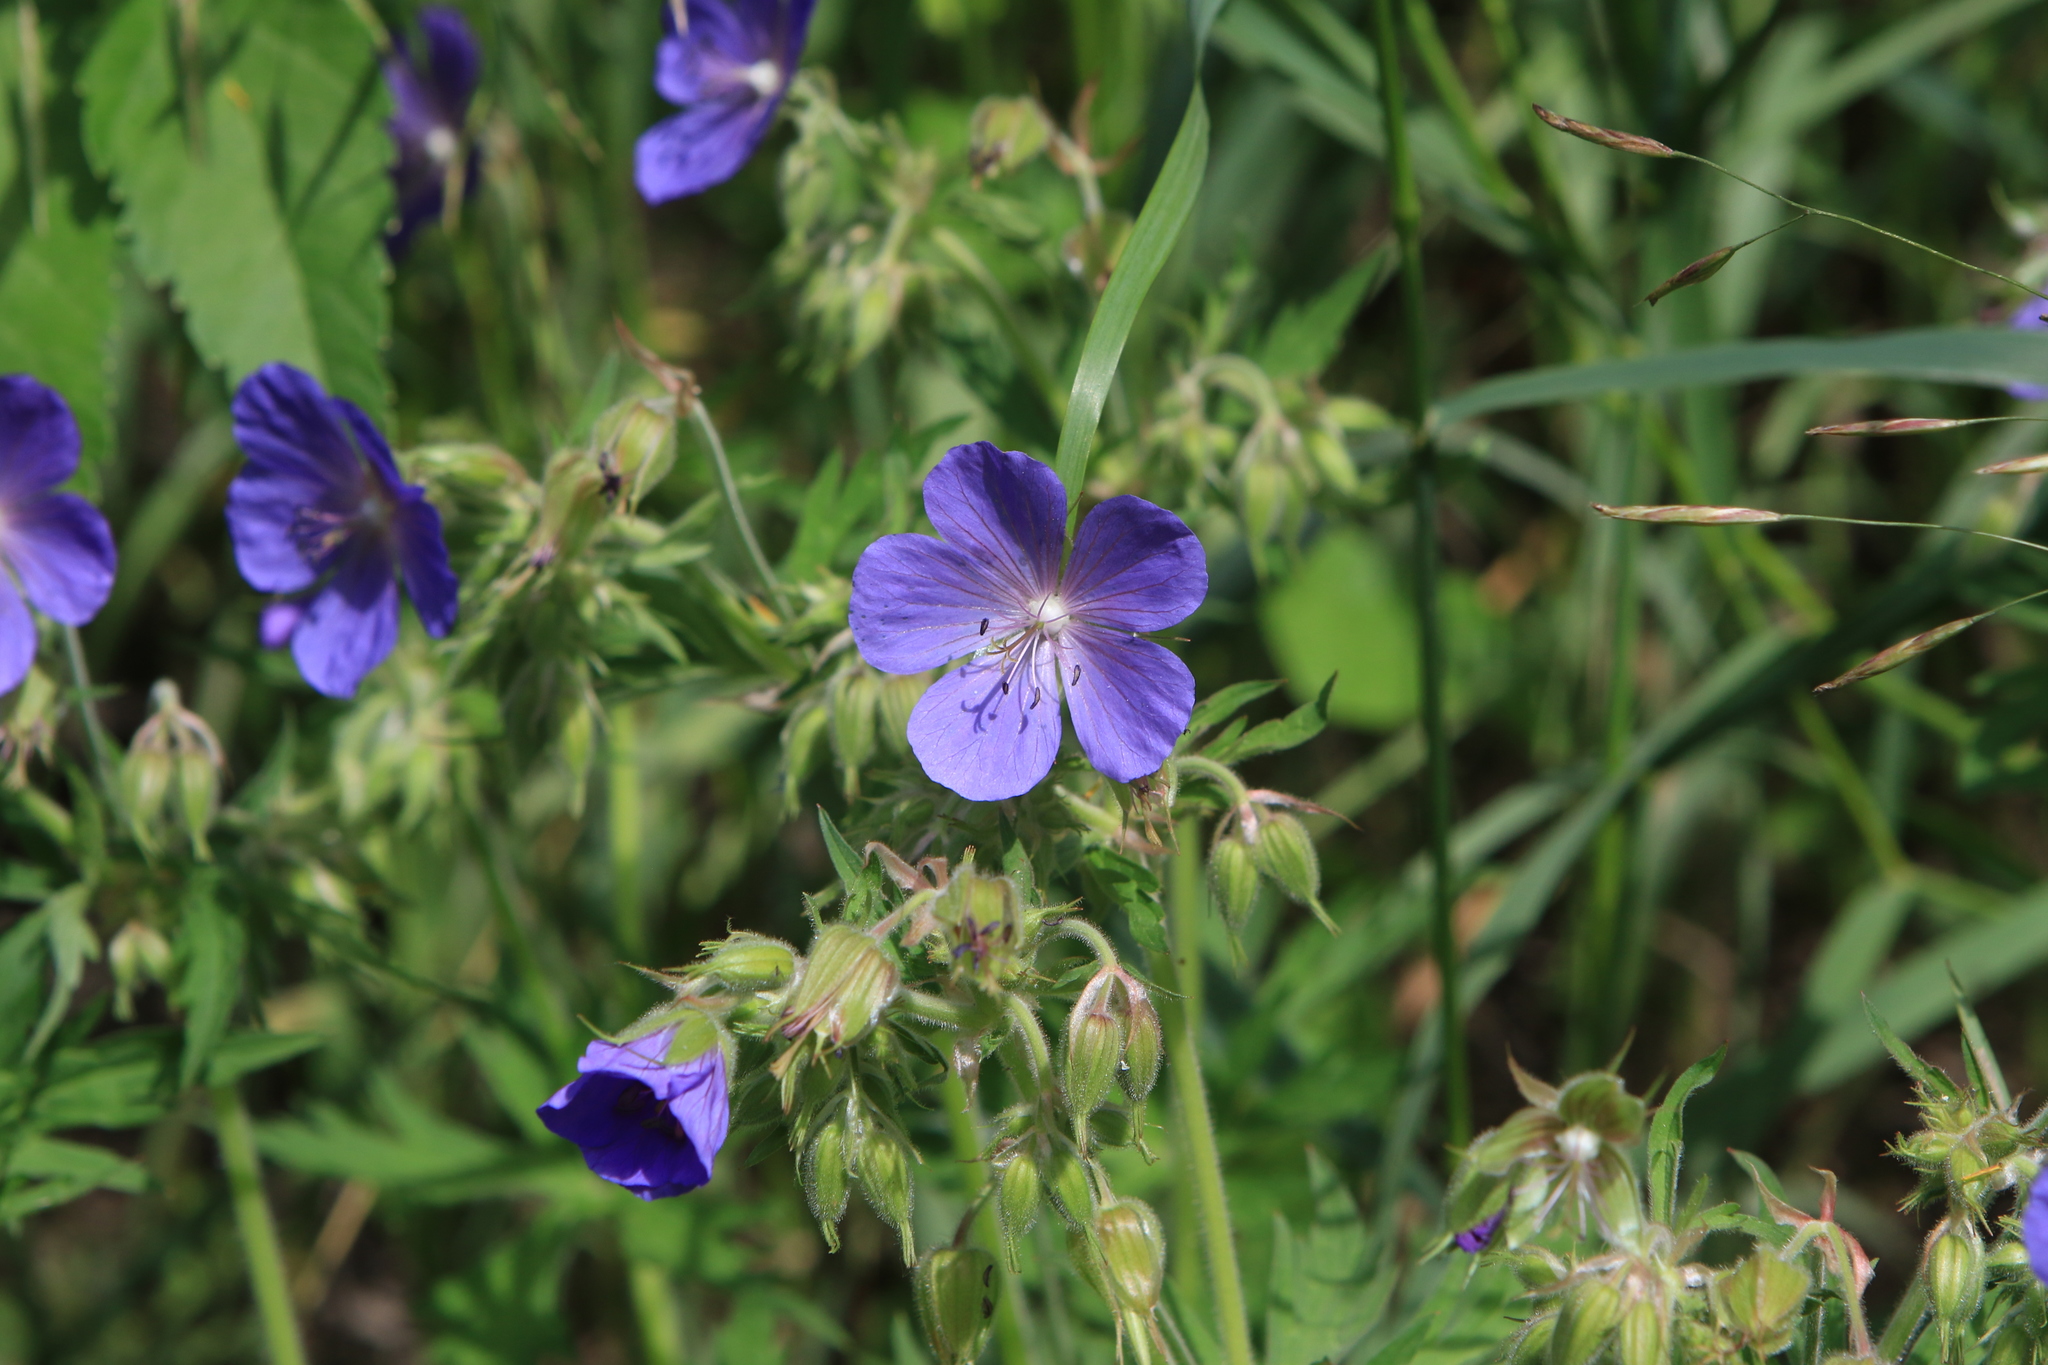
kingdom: Plantae
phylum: Tracheophyta
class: Magnoliopsida
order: Geraniales
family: Geraniaceae
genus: Geranium
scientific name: Geranium pratense
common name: Meadow crane's-bill
